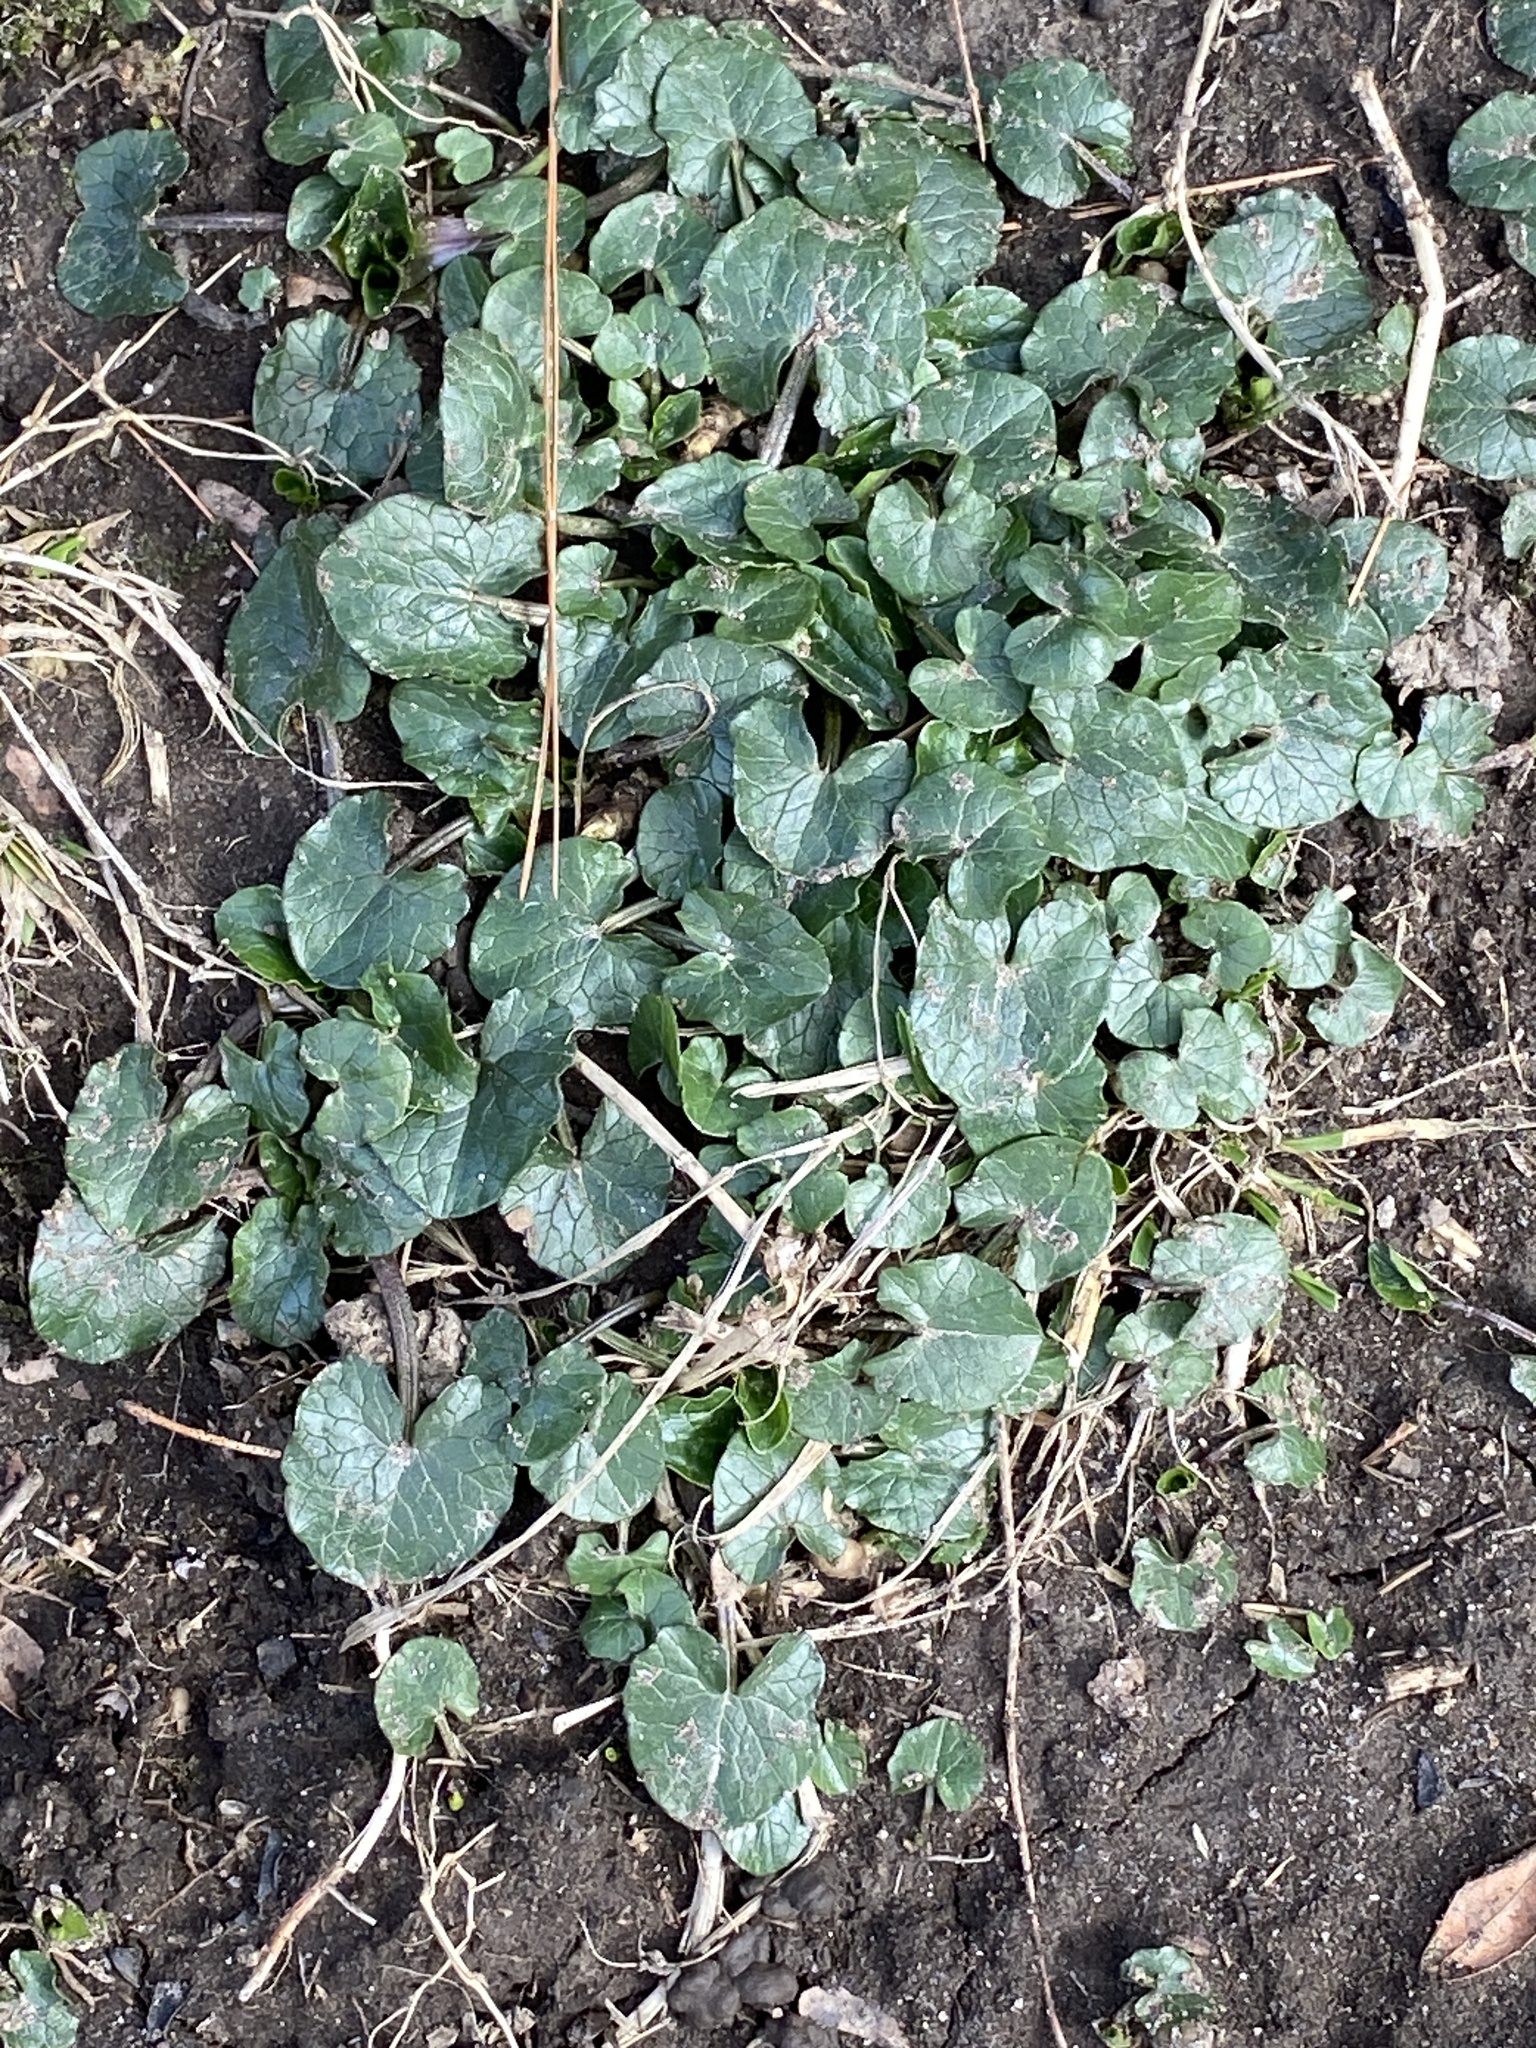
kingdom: Plantae
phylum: Tracheophyta
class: Magnoliopsida
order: Ranunculales
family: Ranunculaceae
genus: Ficaria
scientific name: Ficaria verna
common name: Lesser celandine
